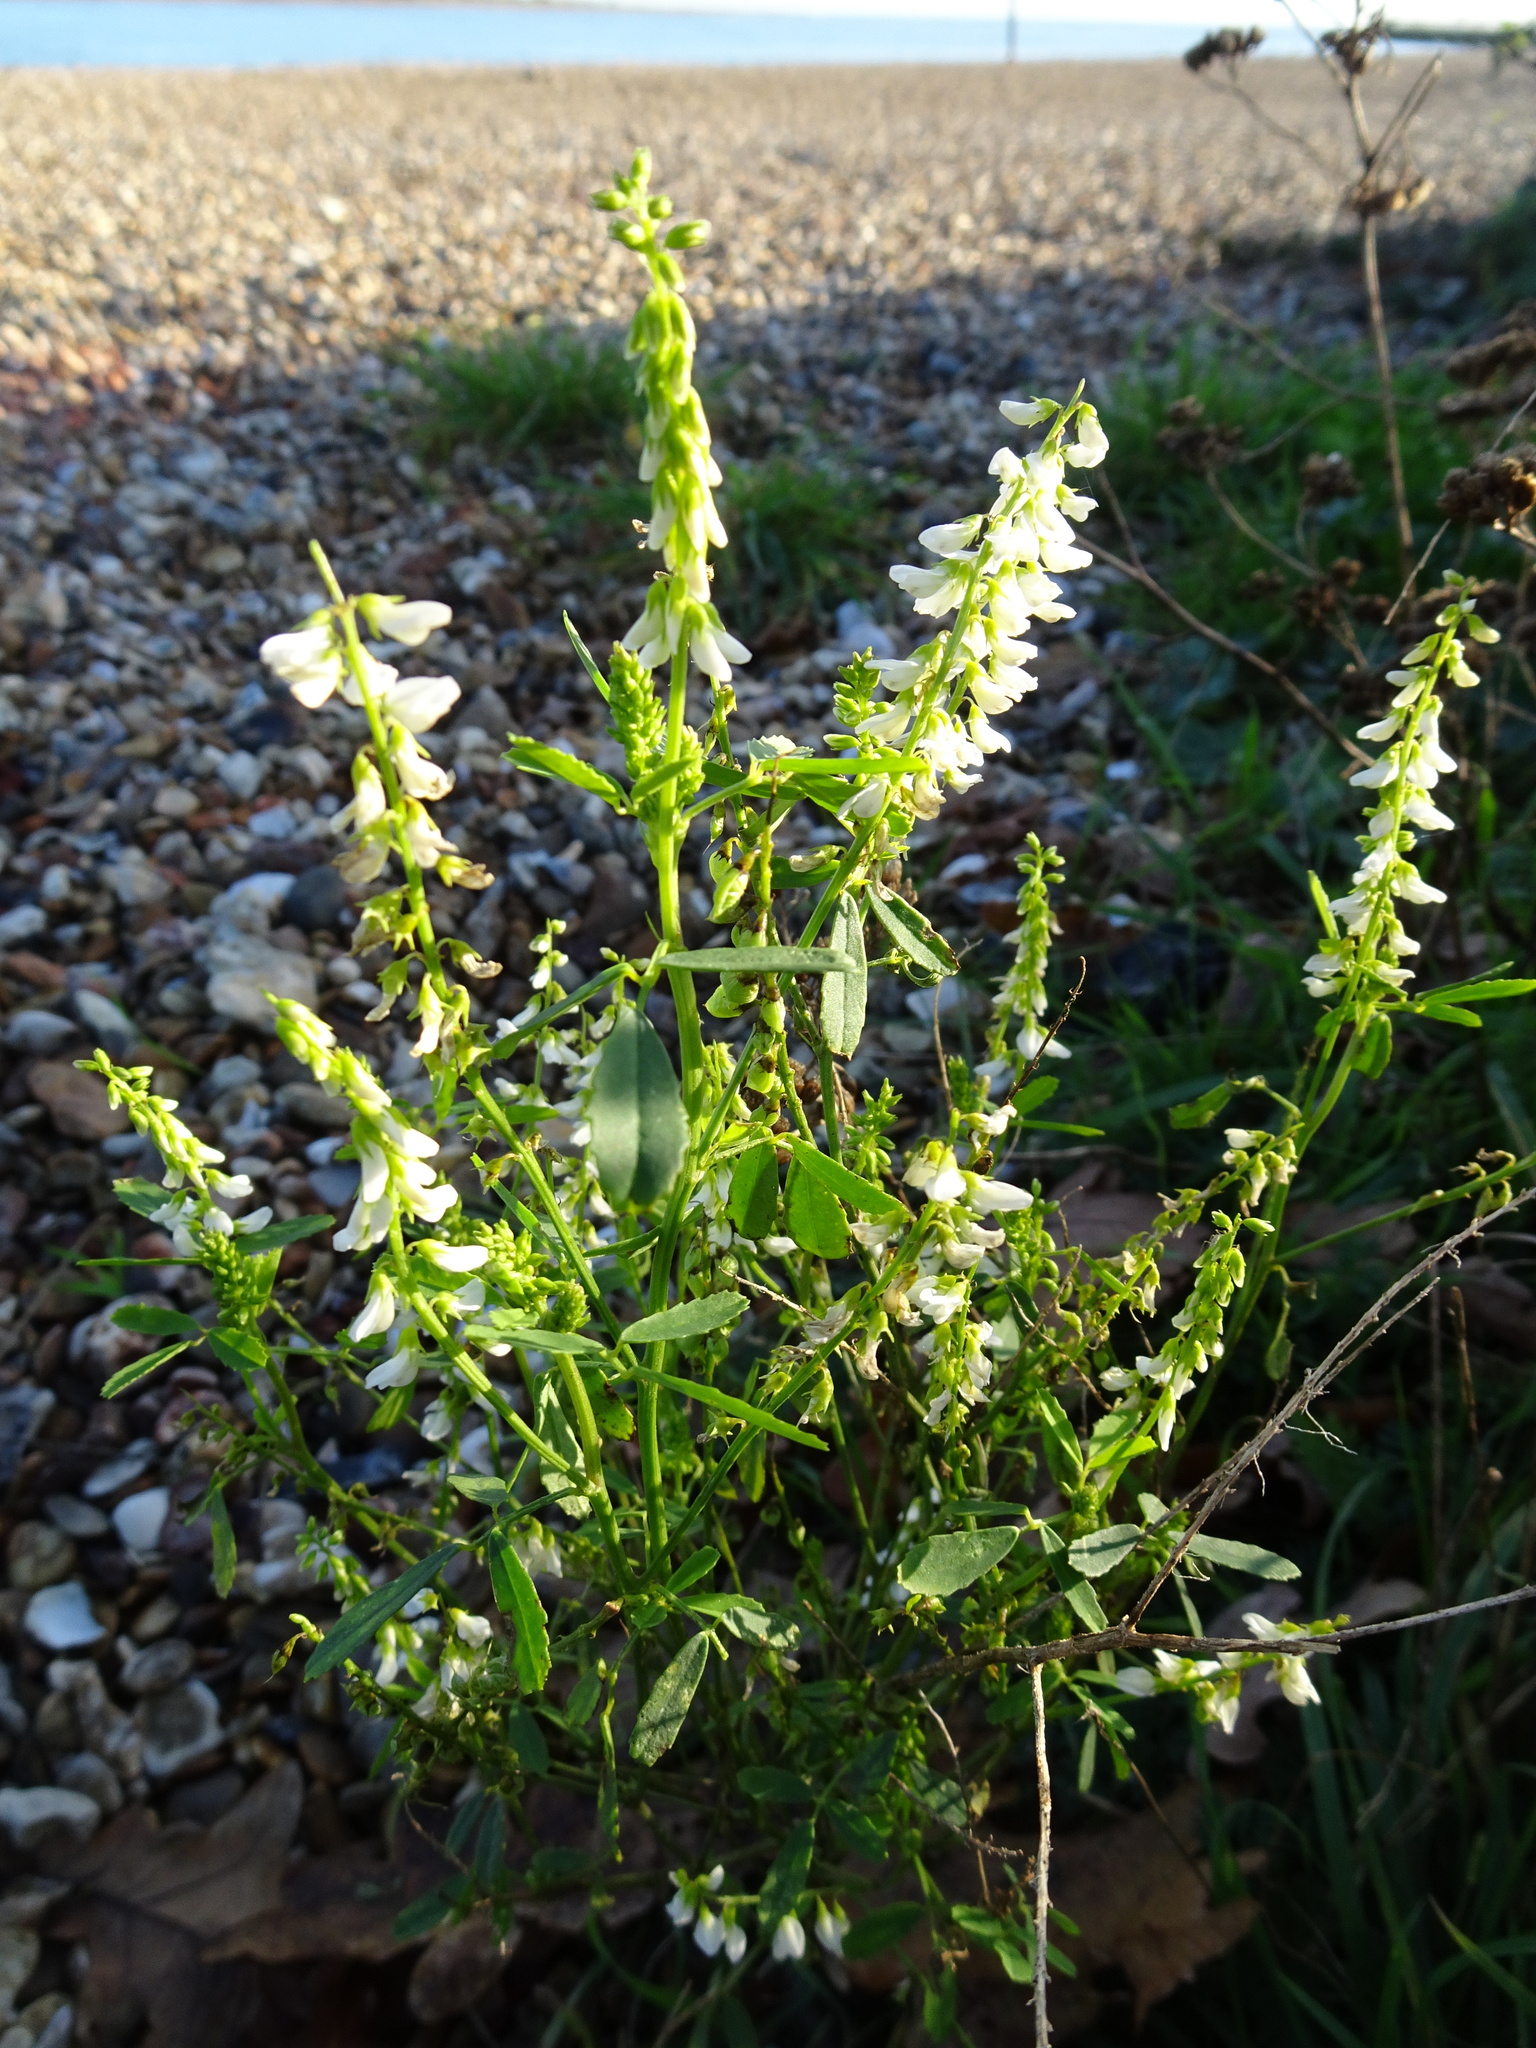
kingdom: Plantae
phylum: Tracheophyta
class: Magnoliopsida
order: Fabales
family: Fabaceae
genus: Melilotus
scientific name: Melilotus albus
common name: White melilot
